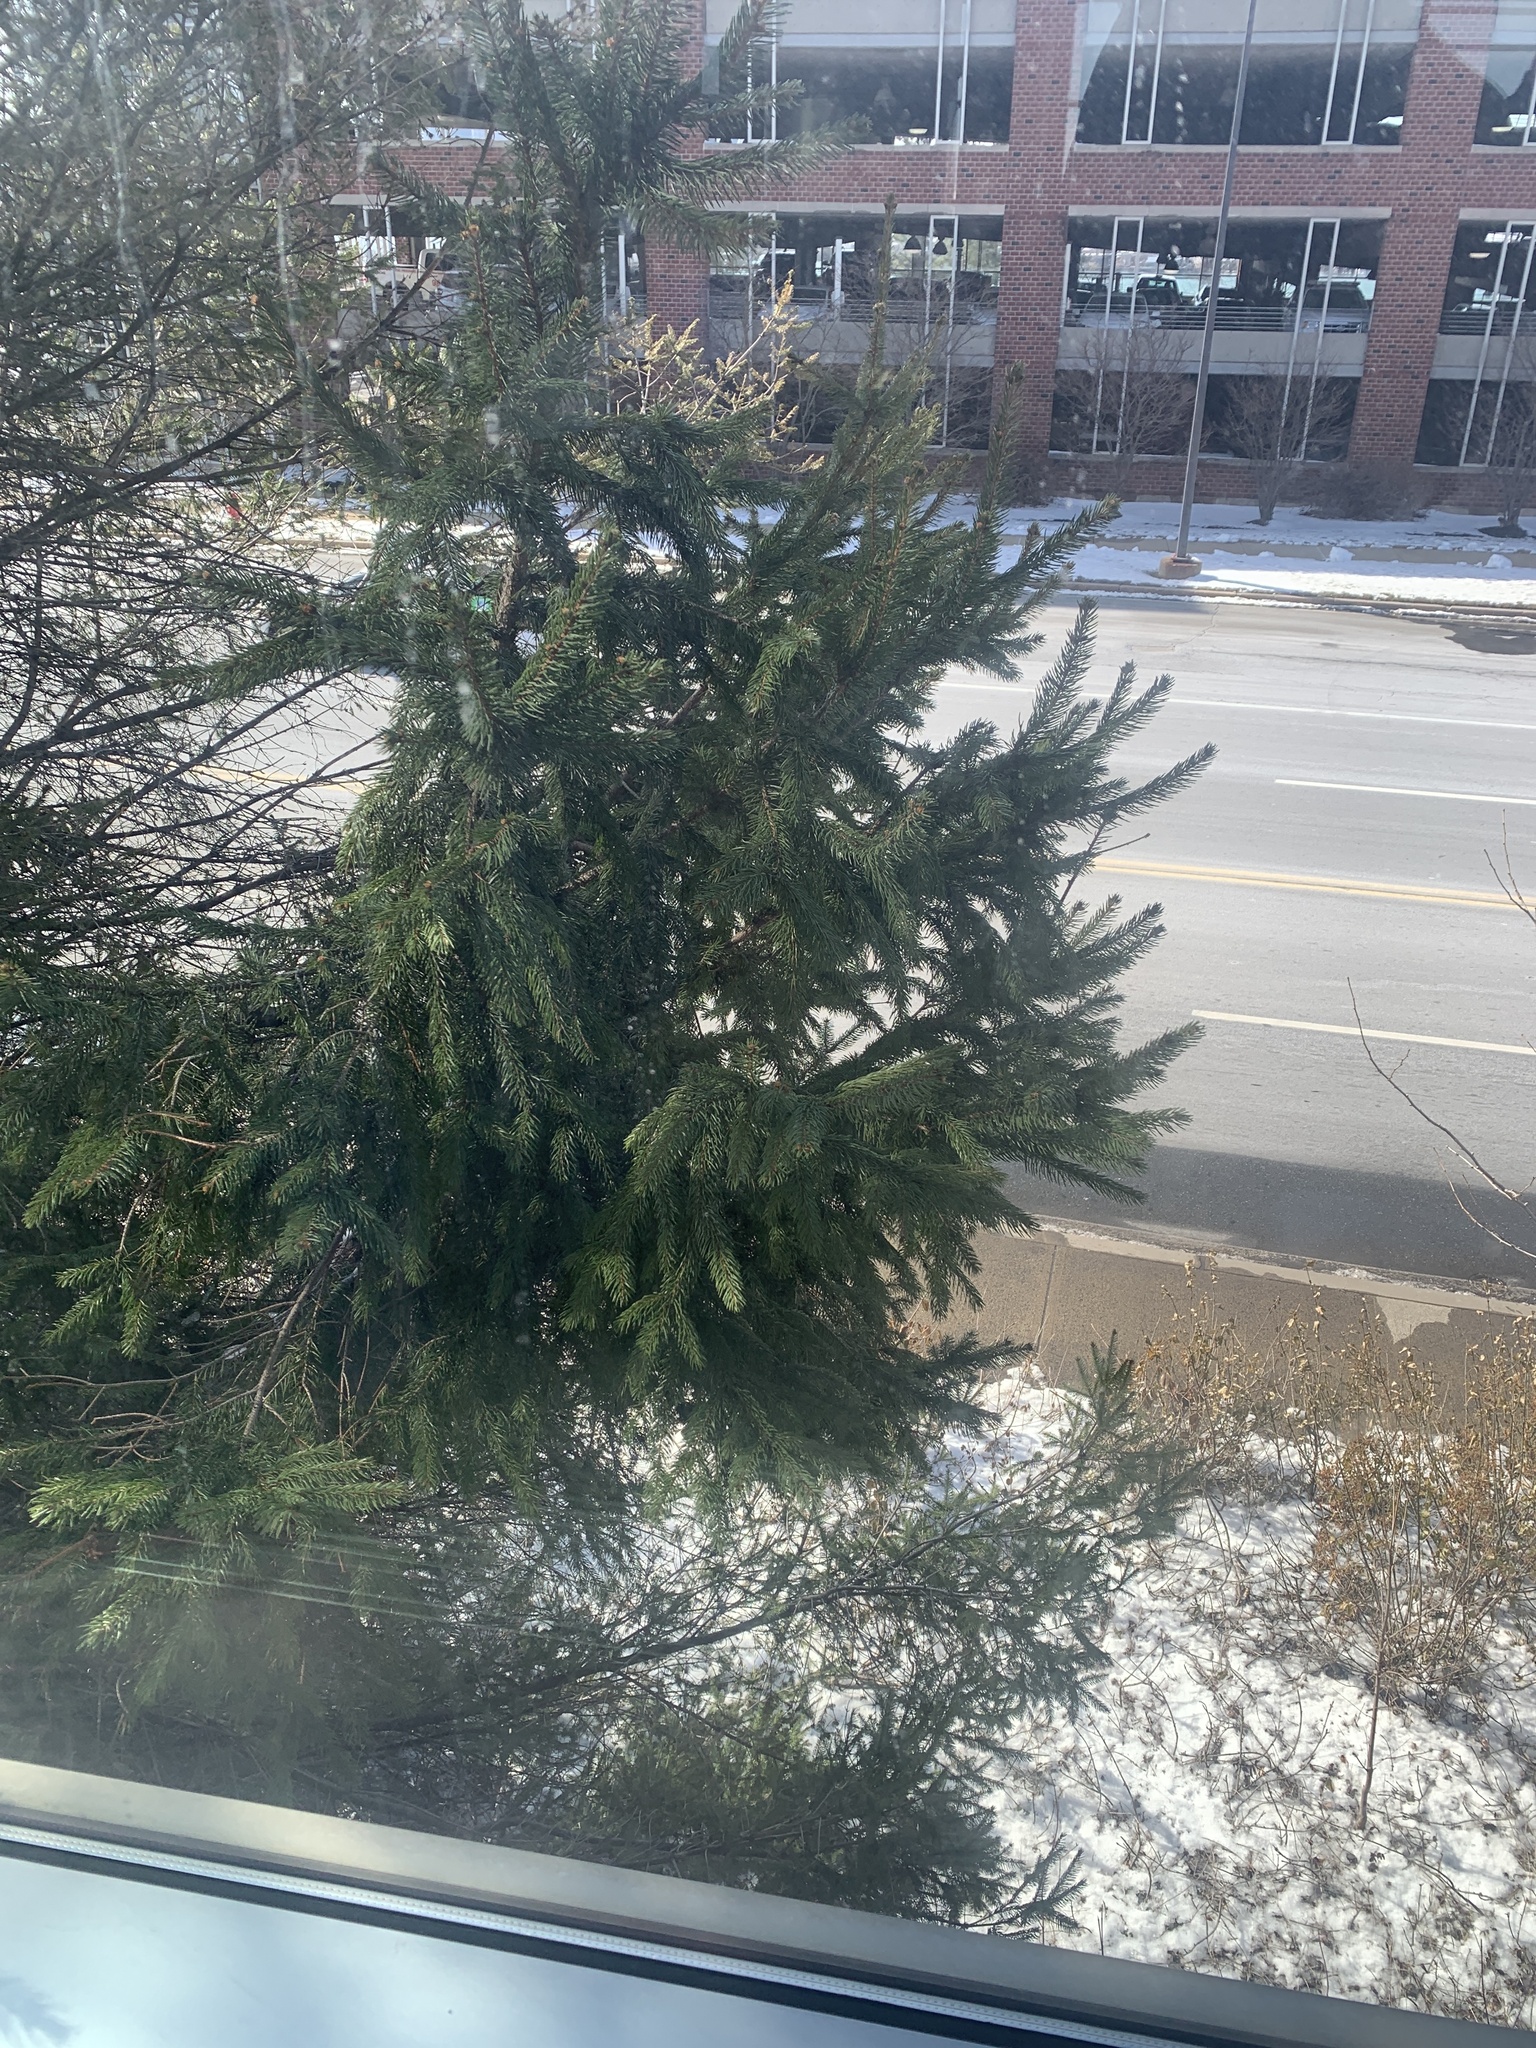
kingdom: Plantae
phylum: Tracheophyta
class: Pinopsida
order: Pinales
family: Pinaceae
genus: Picea
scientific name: Picea abies
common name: Norway spruce
